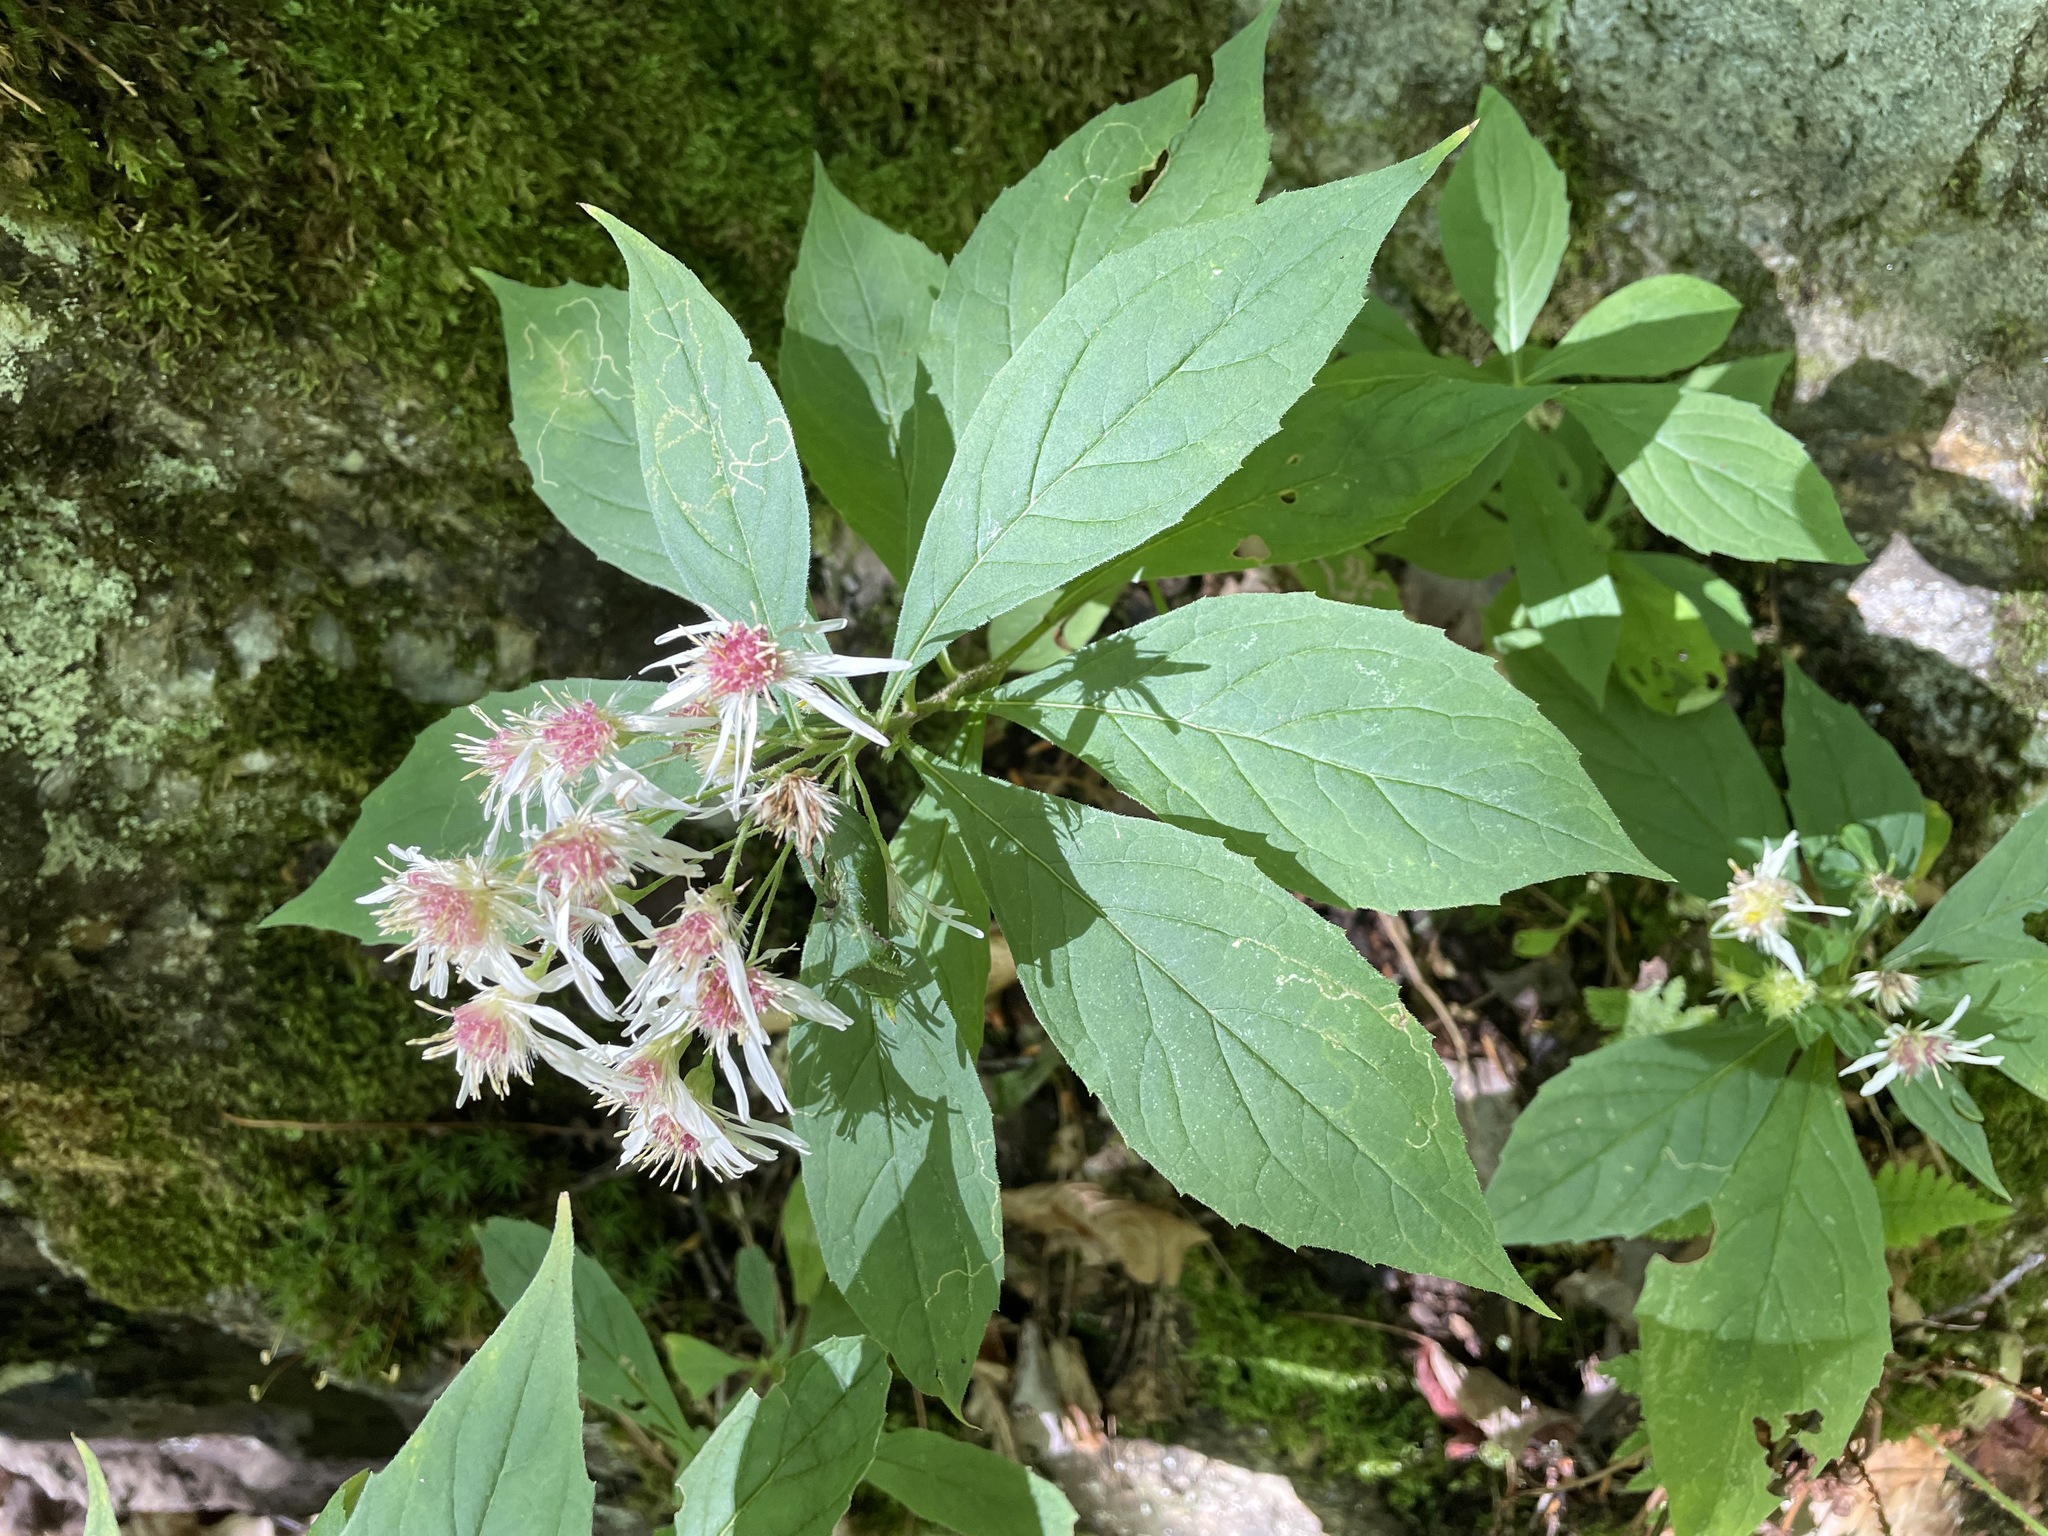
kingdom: Plantae
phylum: Tracheophyta
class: Magnoliopsida
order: Asterales
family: Asteraceae
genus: Oclemena
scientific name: Oclemena acuminata
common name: Mountain aster
